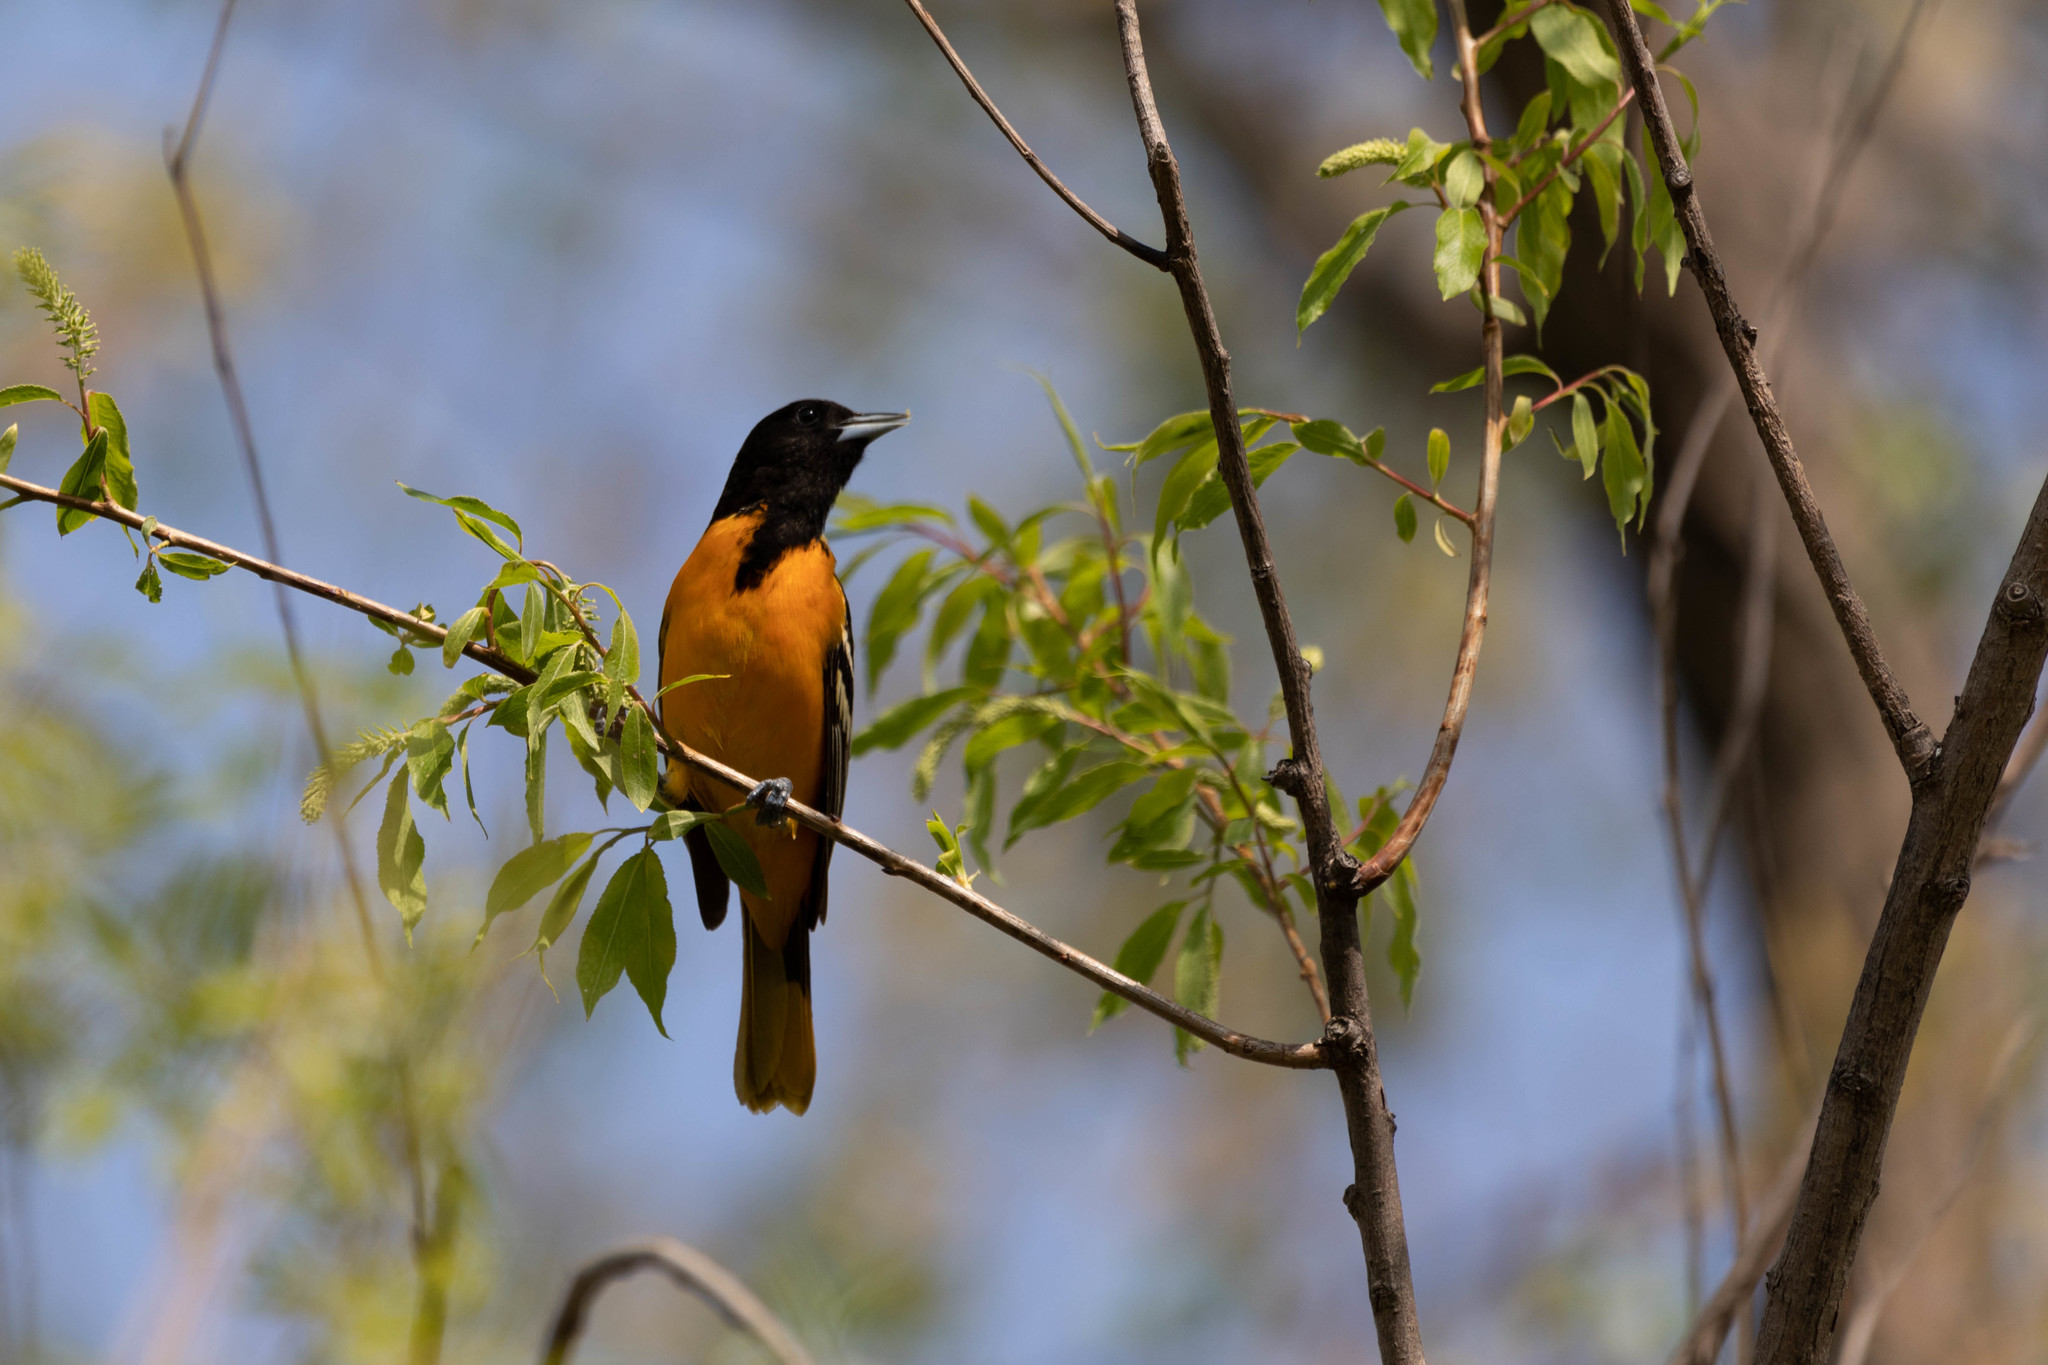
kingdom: Animalia
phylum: Chordata
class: Aves
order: Passeriformes
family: Icteridae
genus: Icterus
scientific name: Icterus galbula
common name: Baltimore oriole
